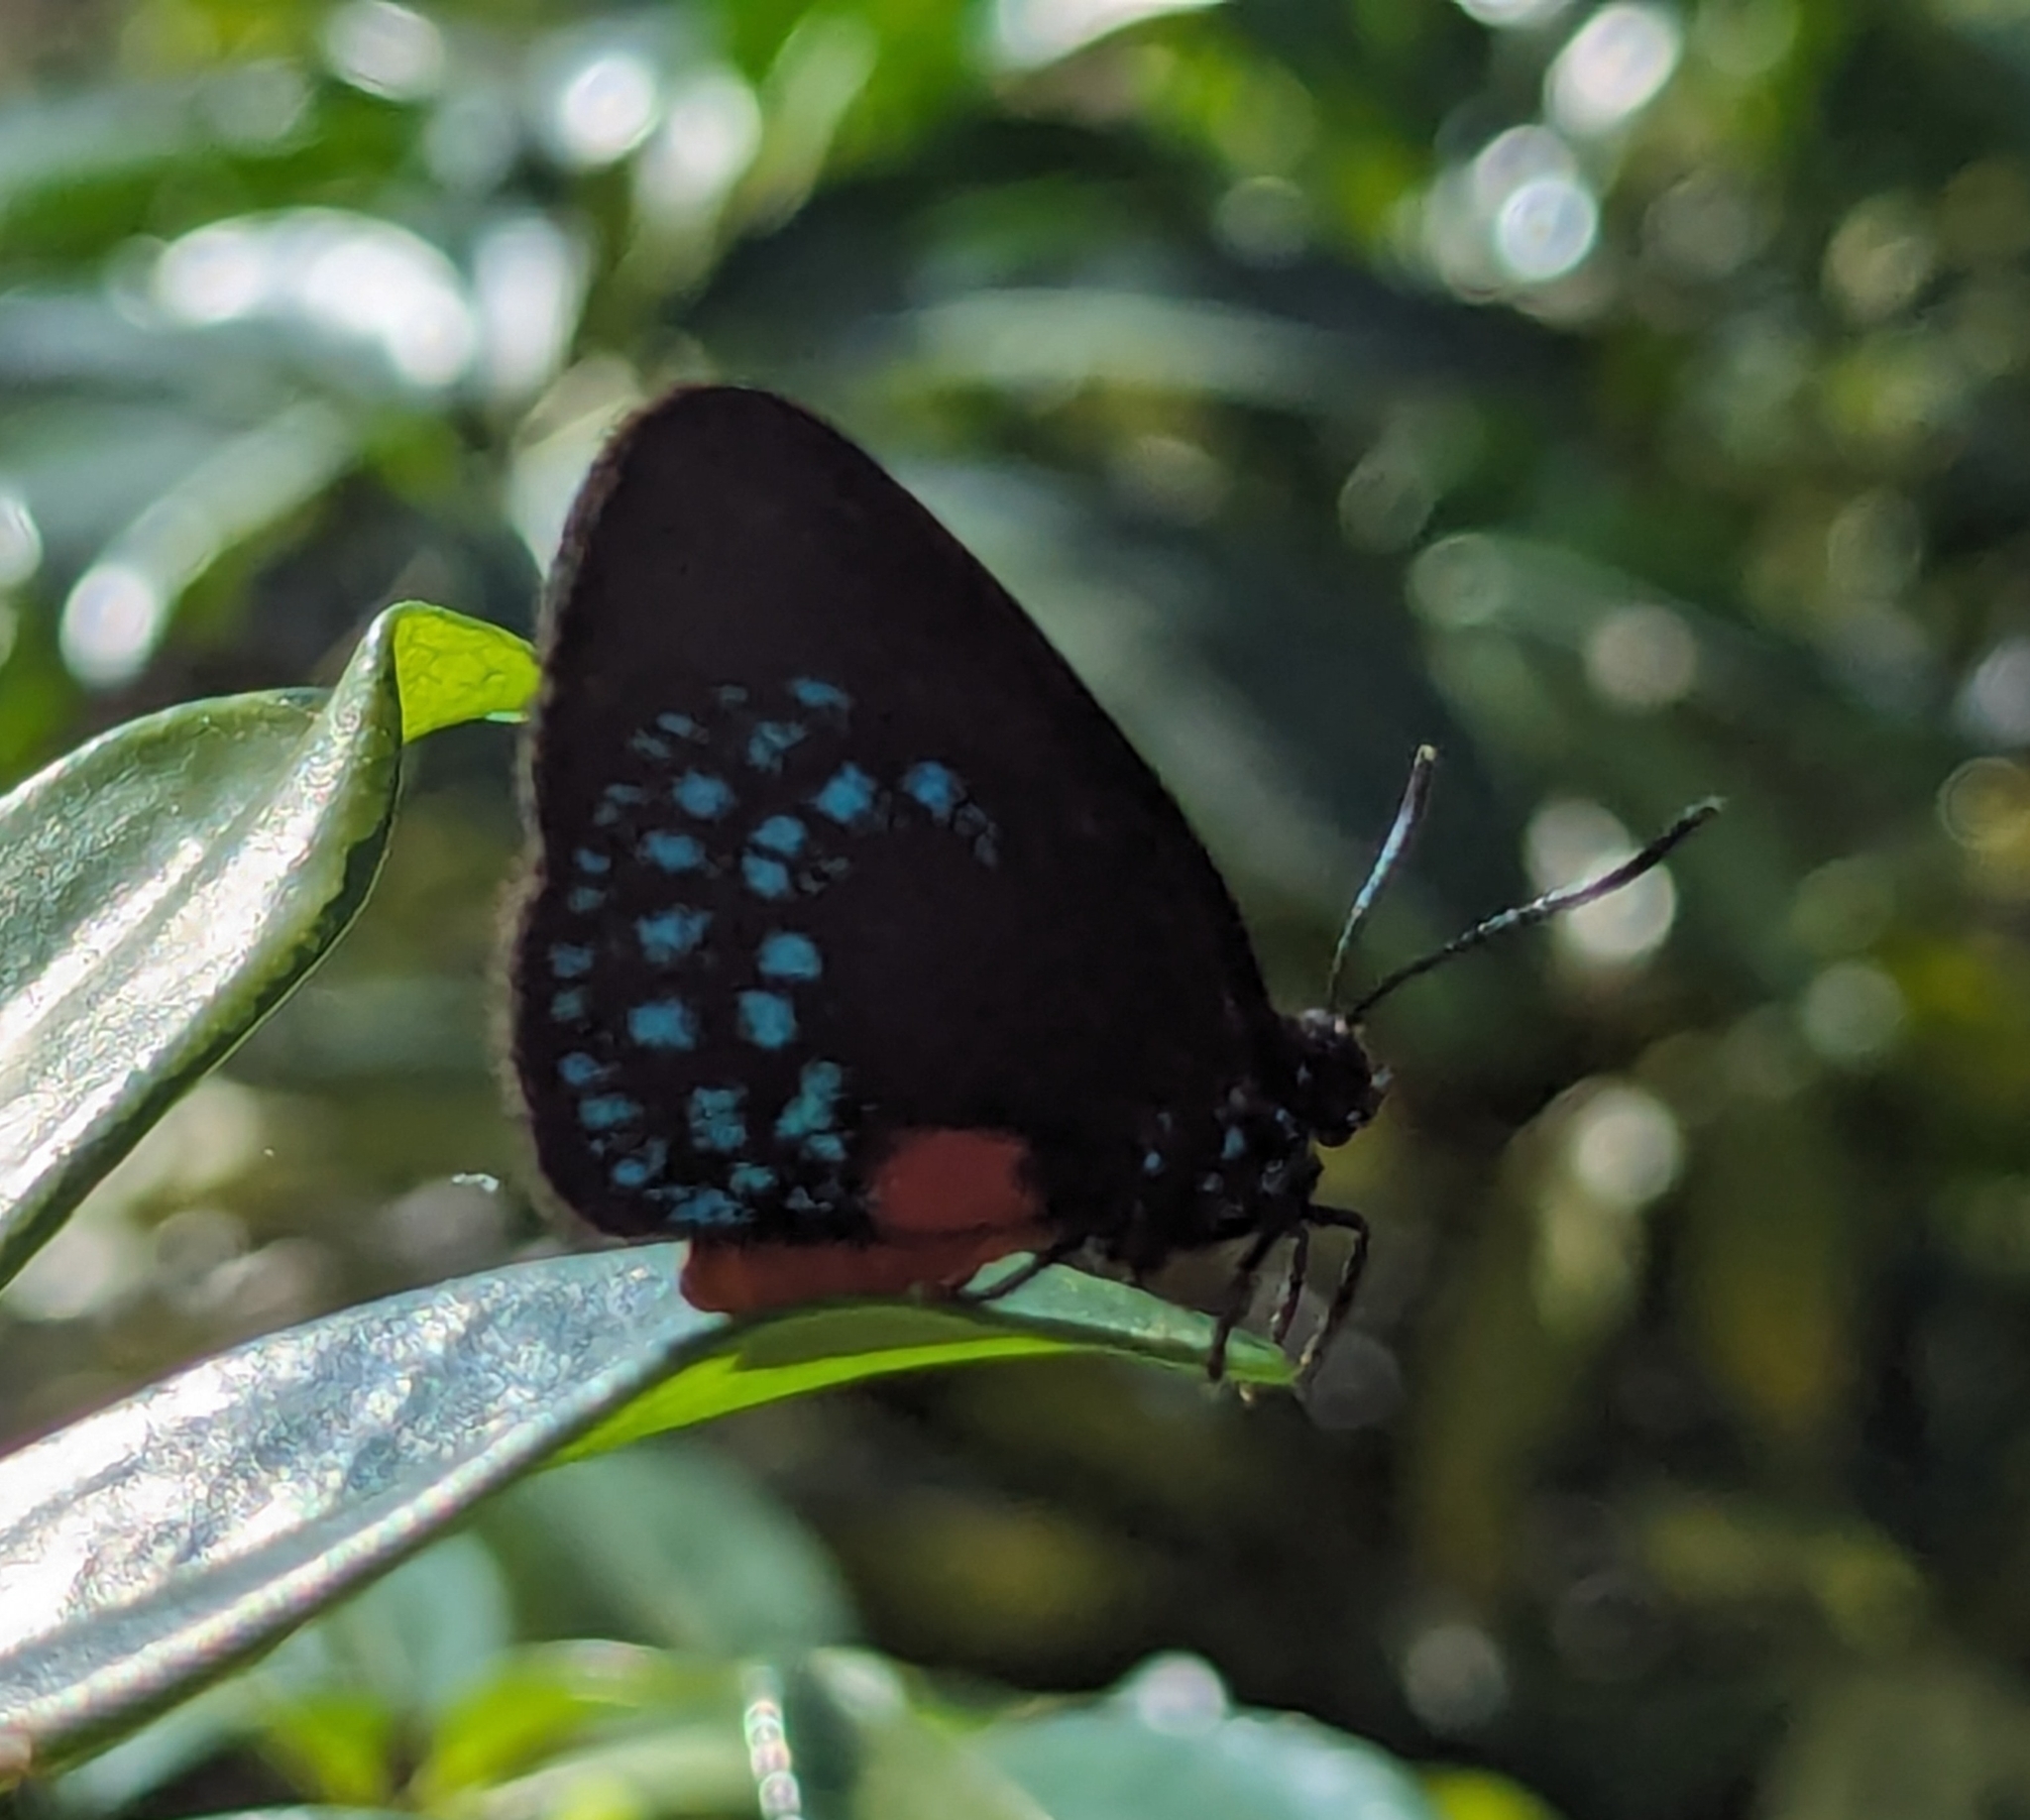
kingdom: Animalia
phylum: Arthropoda
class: Insecta
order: Lepidoptera
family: Lycaenidae
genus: Eumaeus
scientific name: Eumaeus atala
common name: Atala
